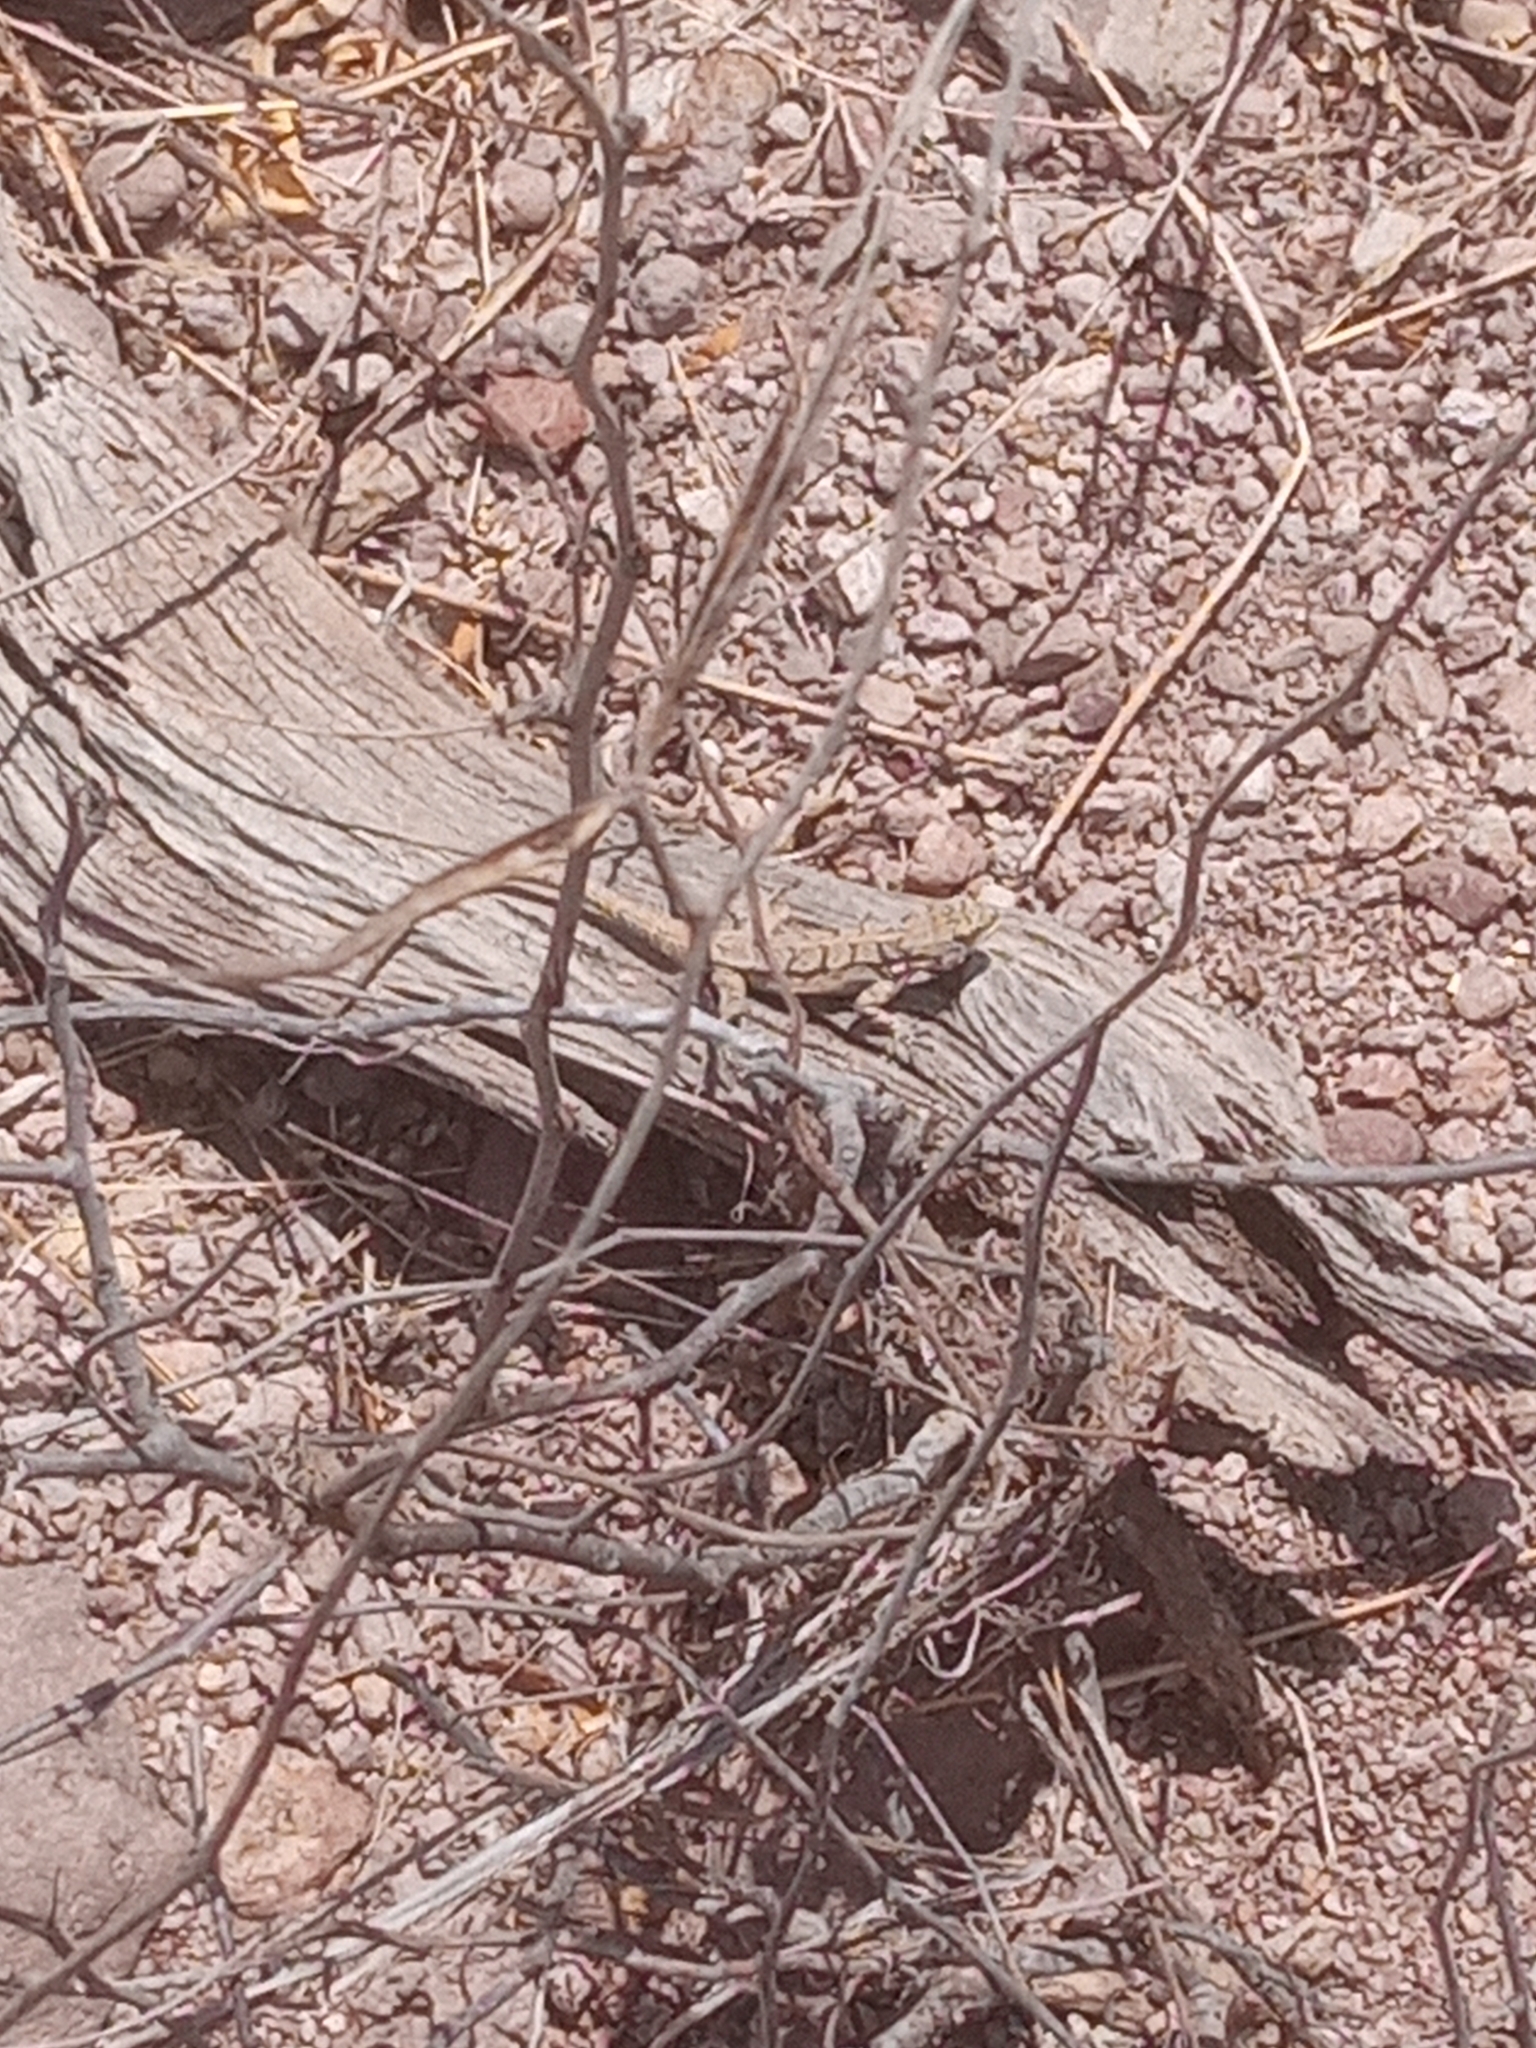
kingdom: Animalia
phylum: Chordata
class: Squamata
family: Phrynosomatidae
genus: Urosaurus
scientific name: Urosaurus ornatus
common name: Ornate tree lizard
